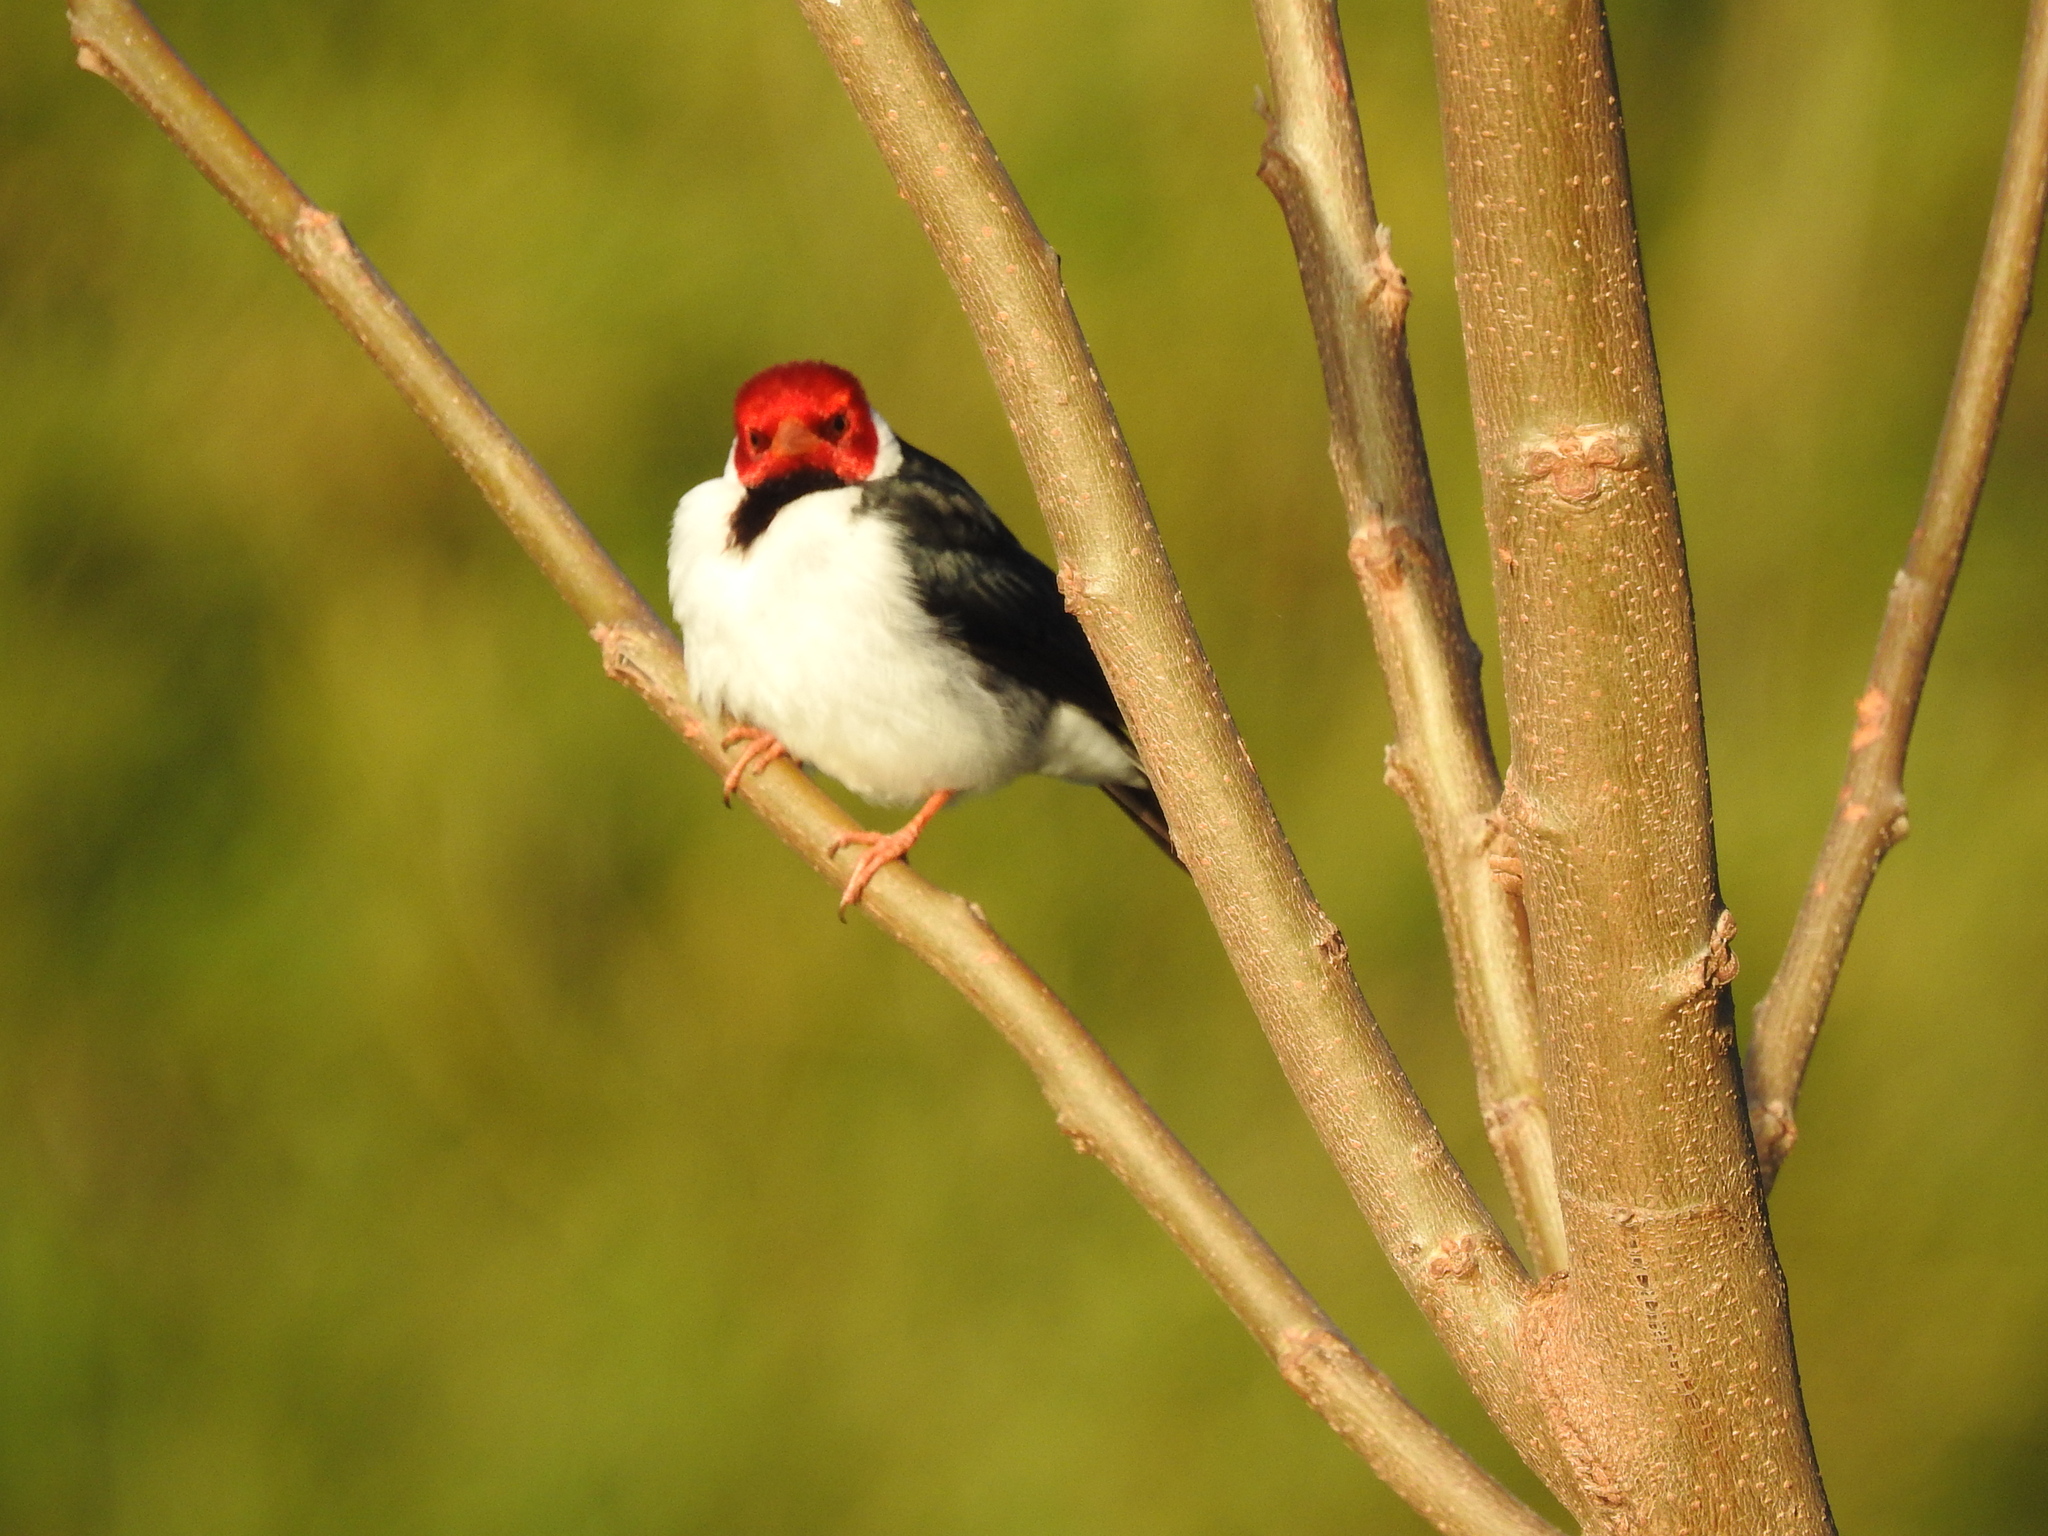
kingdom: Animalia
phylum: Chordata
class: Aves
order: Passeriformes
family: Thraupidae
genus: Paroaria
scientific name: Paroaria capitata
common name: Yellow-billed cardinal
